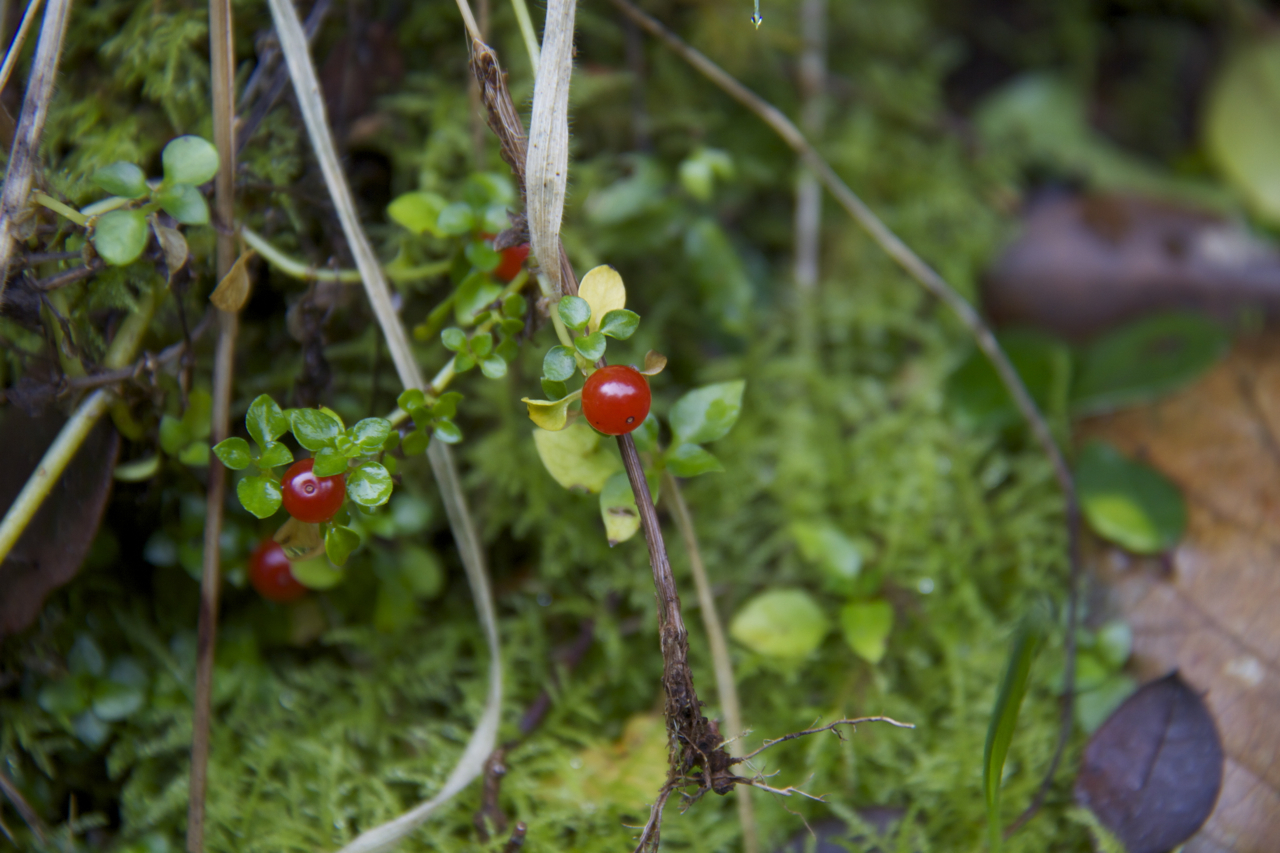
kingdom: Plantae
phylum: Tracheophyta
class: Magnoliopsida
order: Gentianales
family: Rubiaceae
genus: Nertera
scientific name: Nertera granadensis
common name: Beadplant
